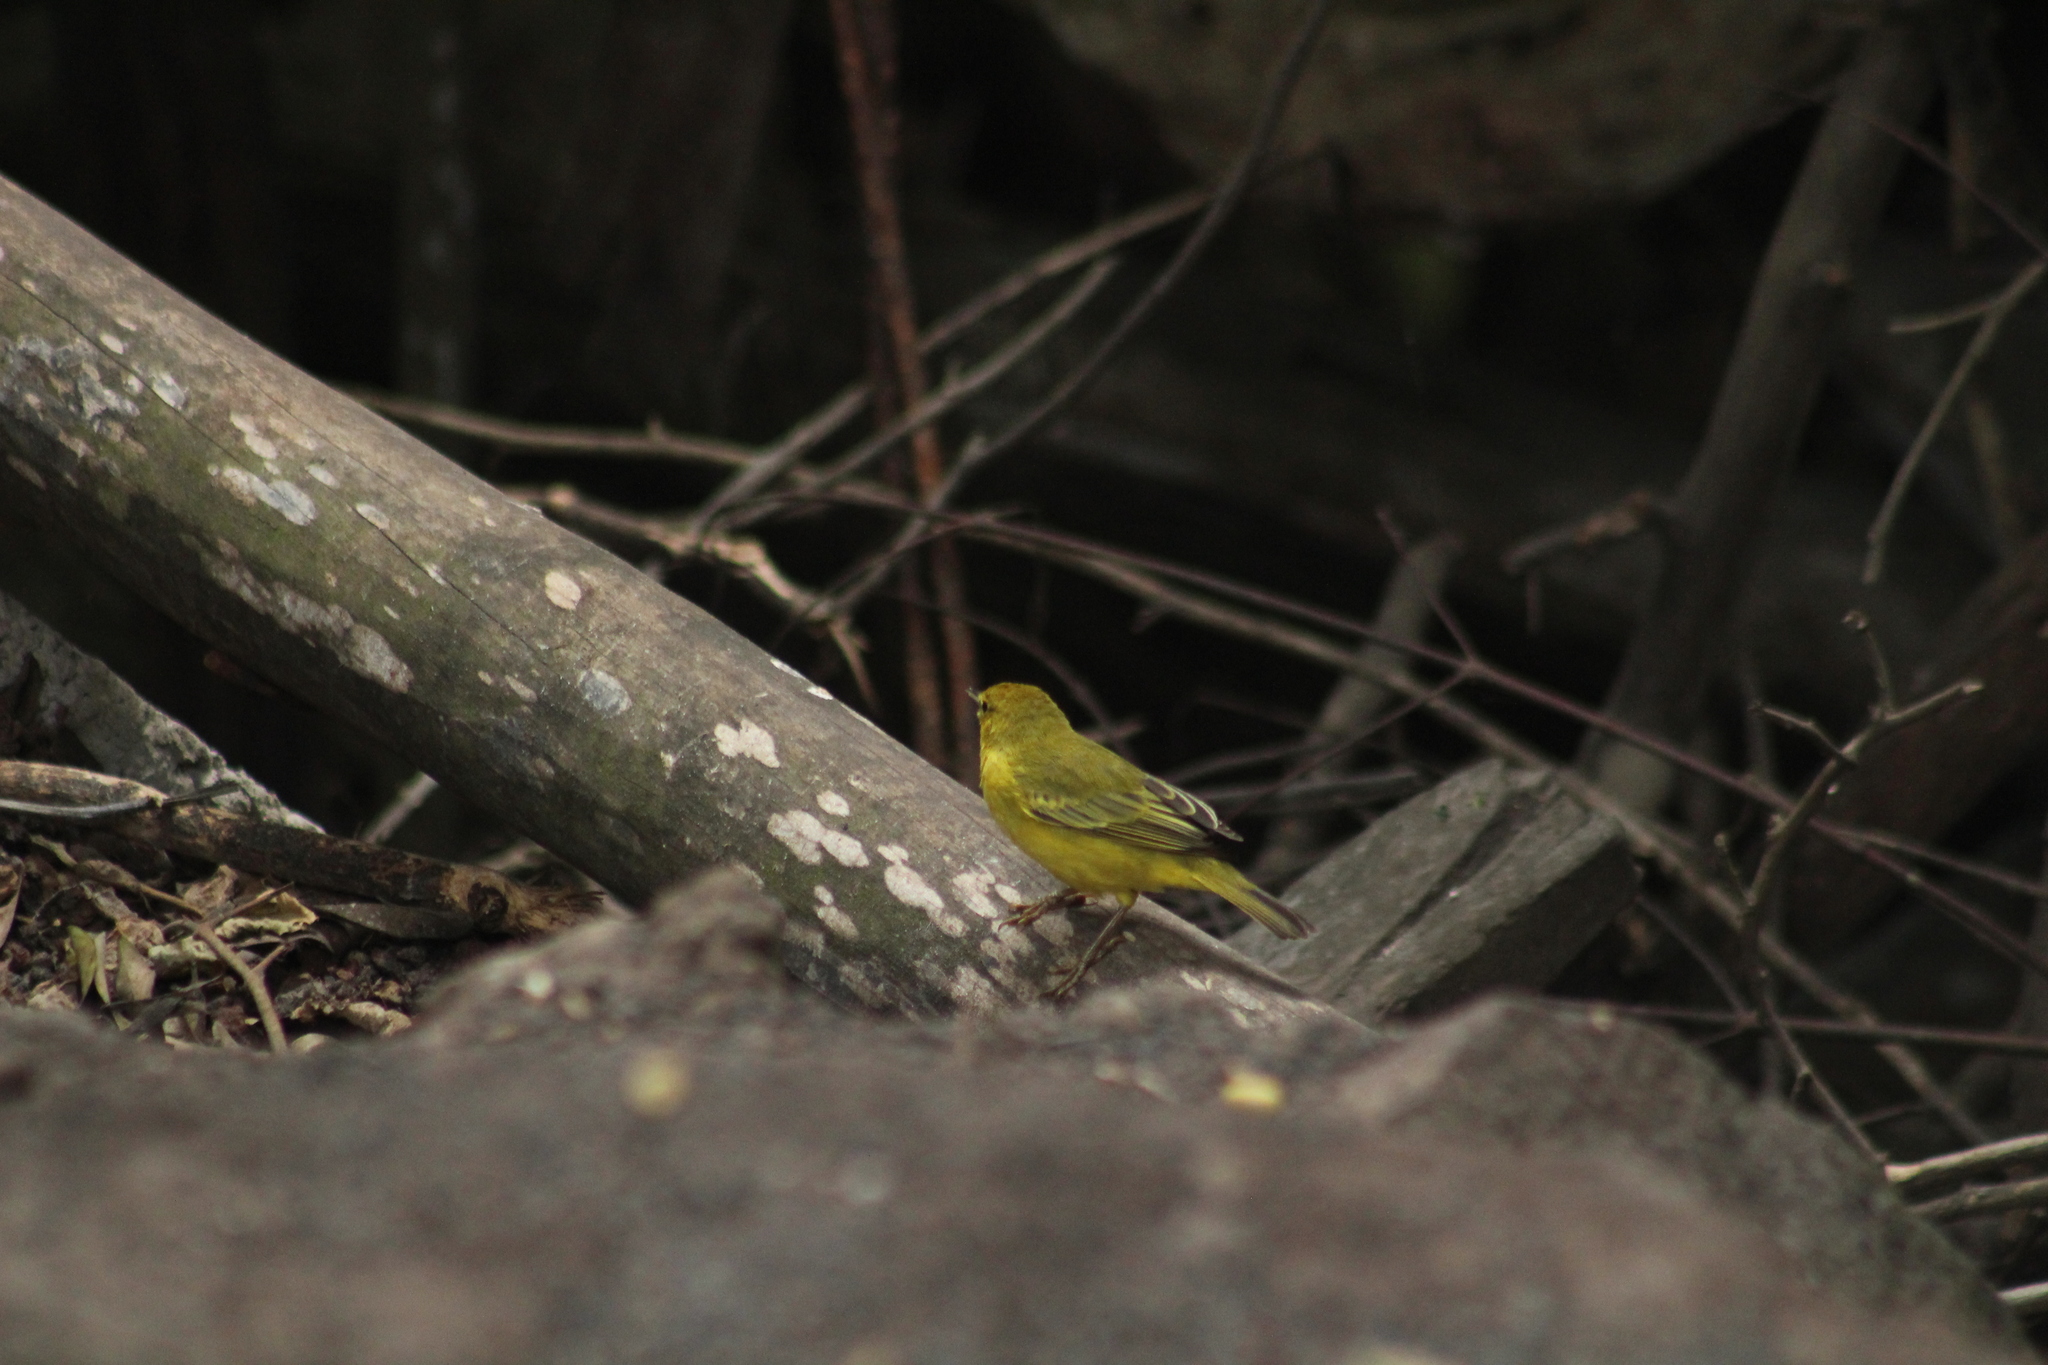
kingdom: Animalia
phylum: Chordata
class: Aves
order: Passeriformes
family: Parulidae
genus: Setophaga
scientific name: Setophaga petechia
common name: Yellow warbler
